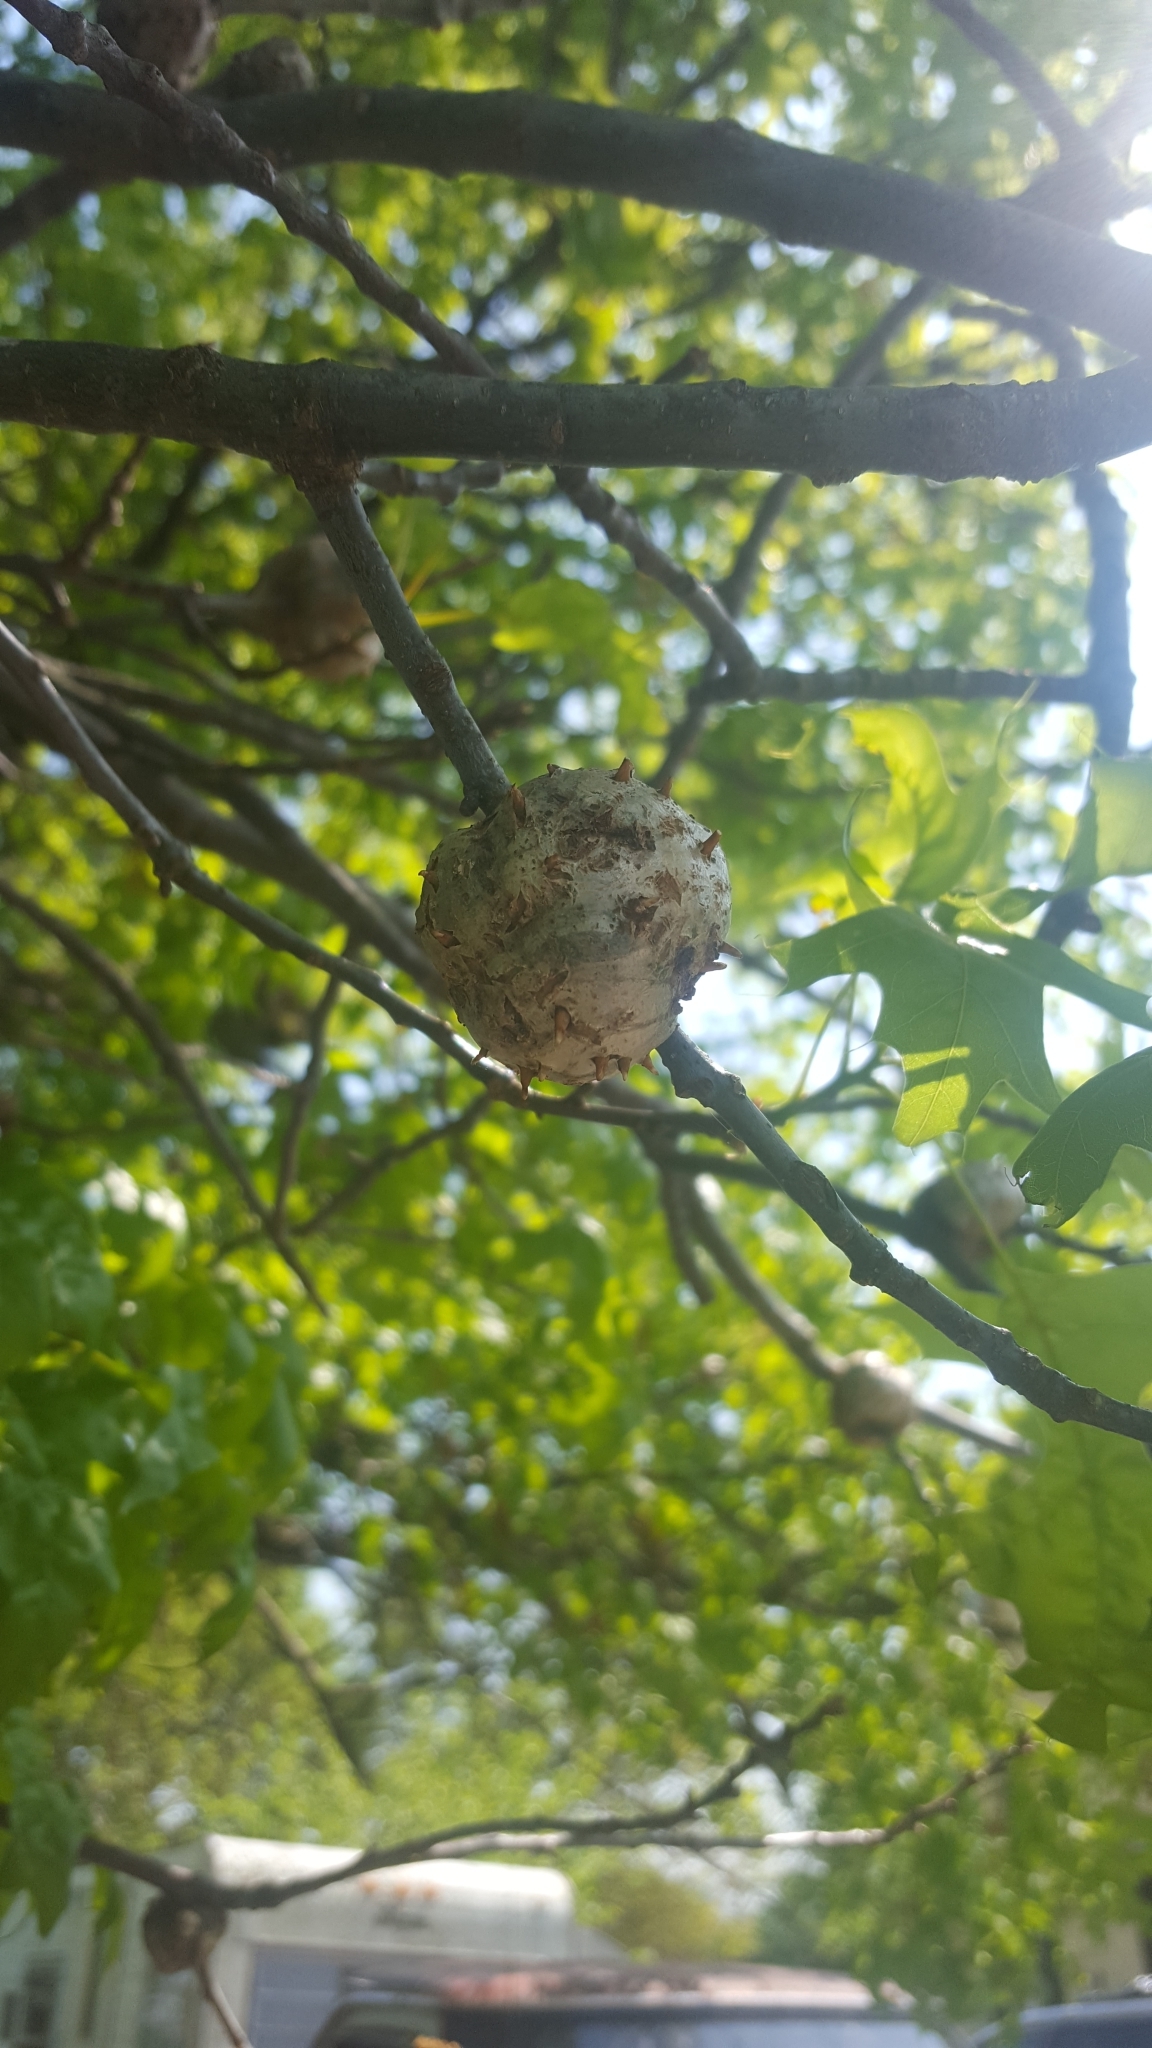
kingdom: Animalia
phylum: Arthropoda
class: Insecta
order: Hymenoptera
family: Cynipidae
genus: Callirhytis
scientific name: Callirhytis
